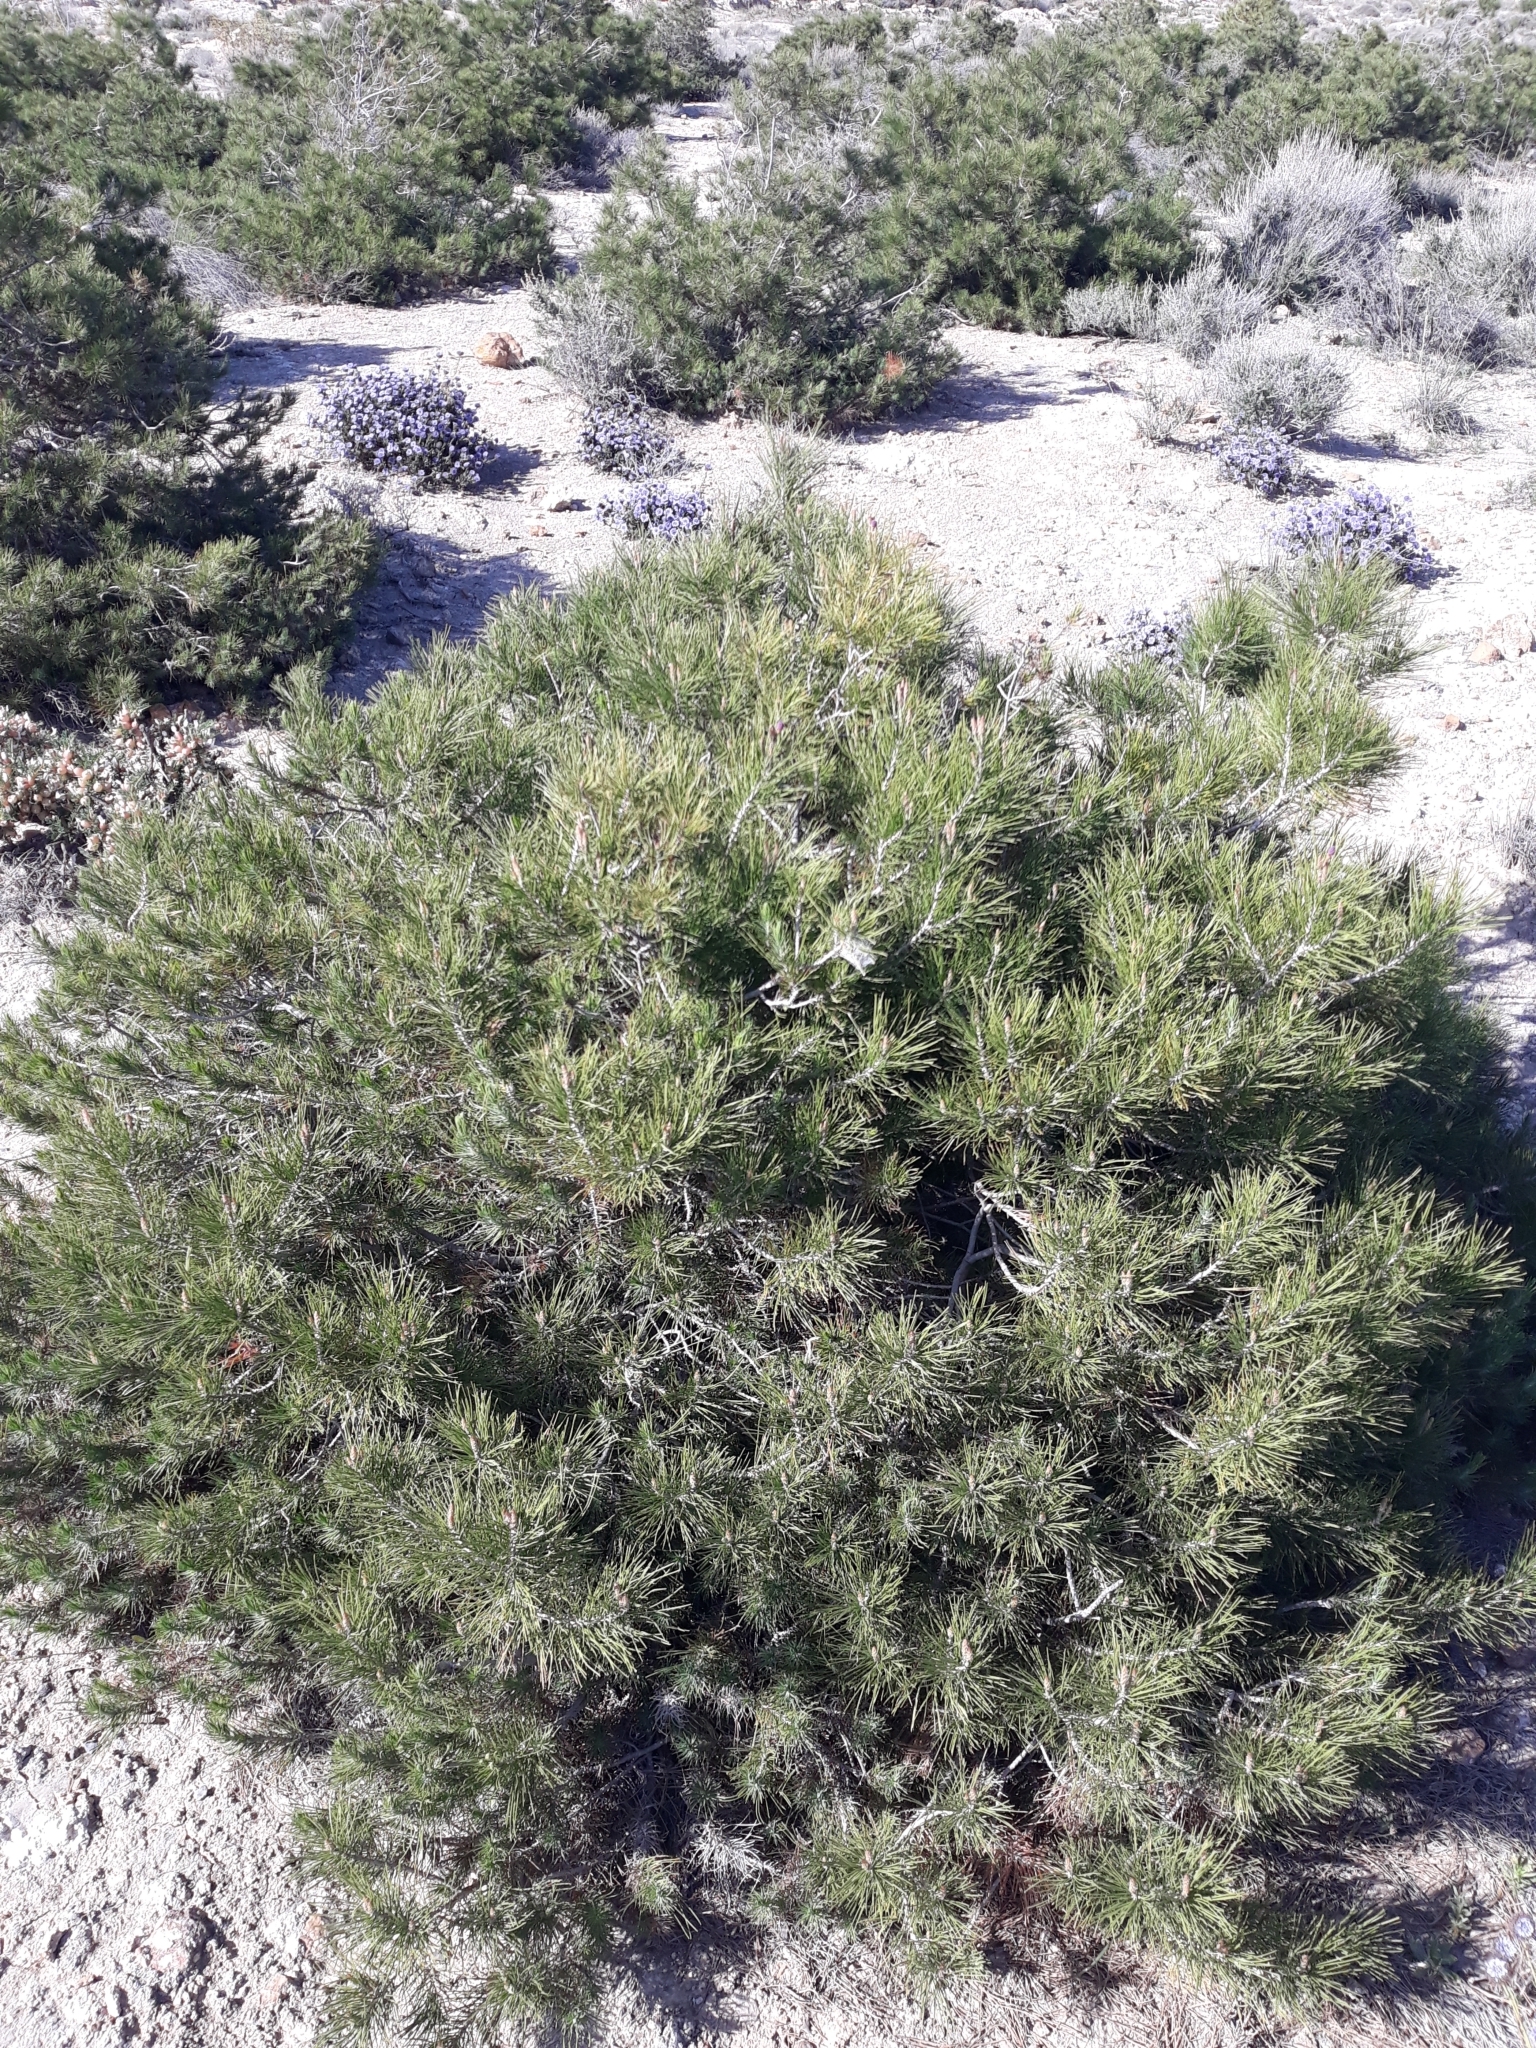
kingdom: Plantae
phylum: Tracheophyta
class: Pinopsida
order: Pinales
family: Pinaceae
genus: Pinus
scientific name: Pinus halepensis
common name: Aleppo pine
